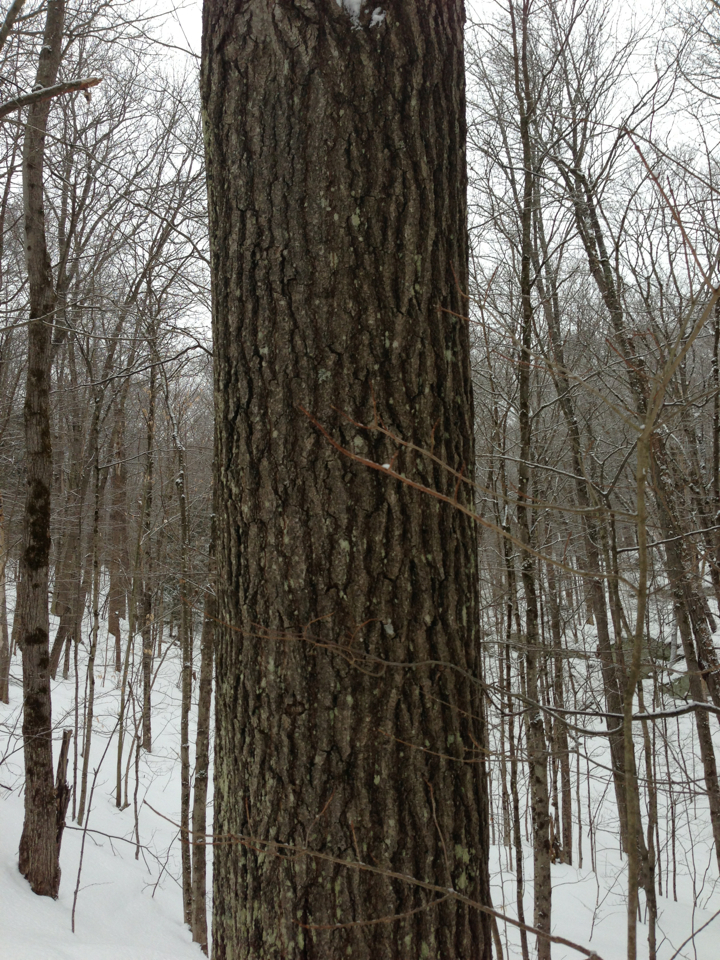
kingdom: Plantae
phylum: Tracheophyta
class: Magnoliopsida
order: Fagales
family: Fagaceae
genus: Quercus
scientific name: Quercus rubra
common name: Red oak
